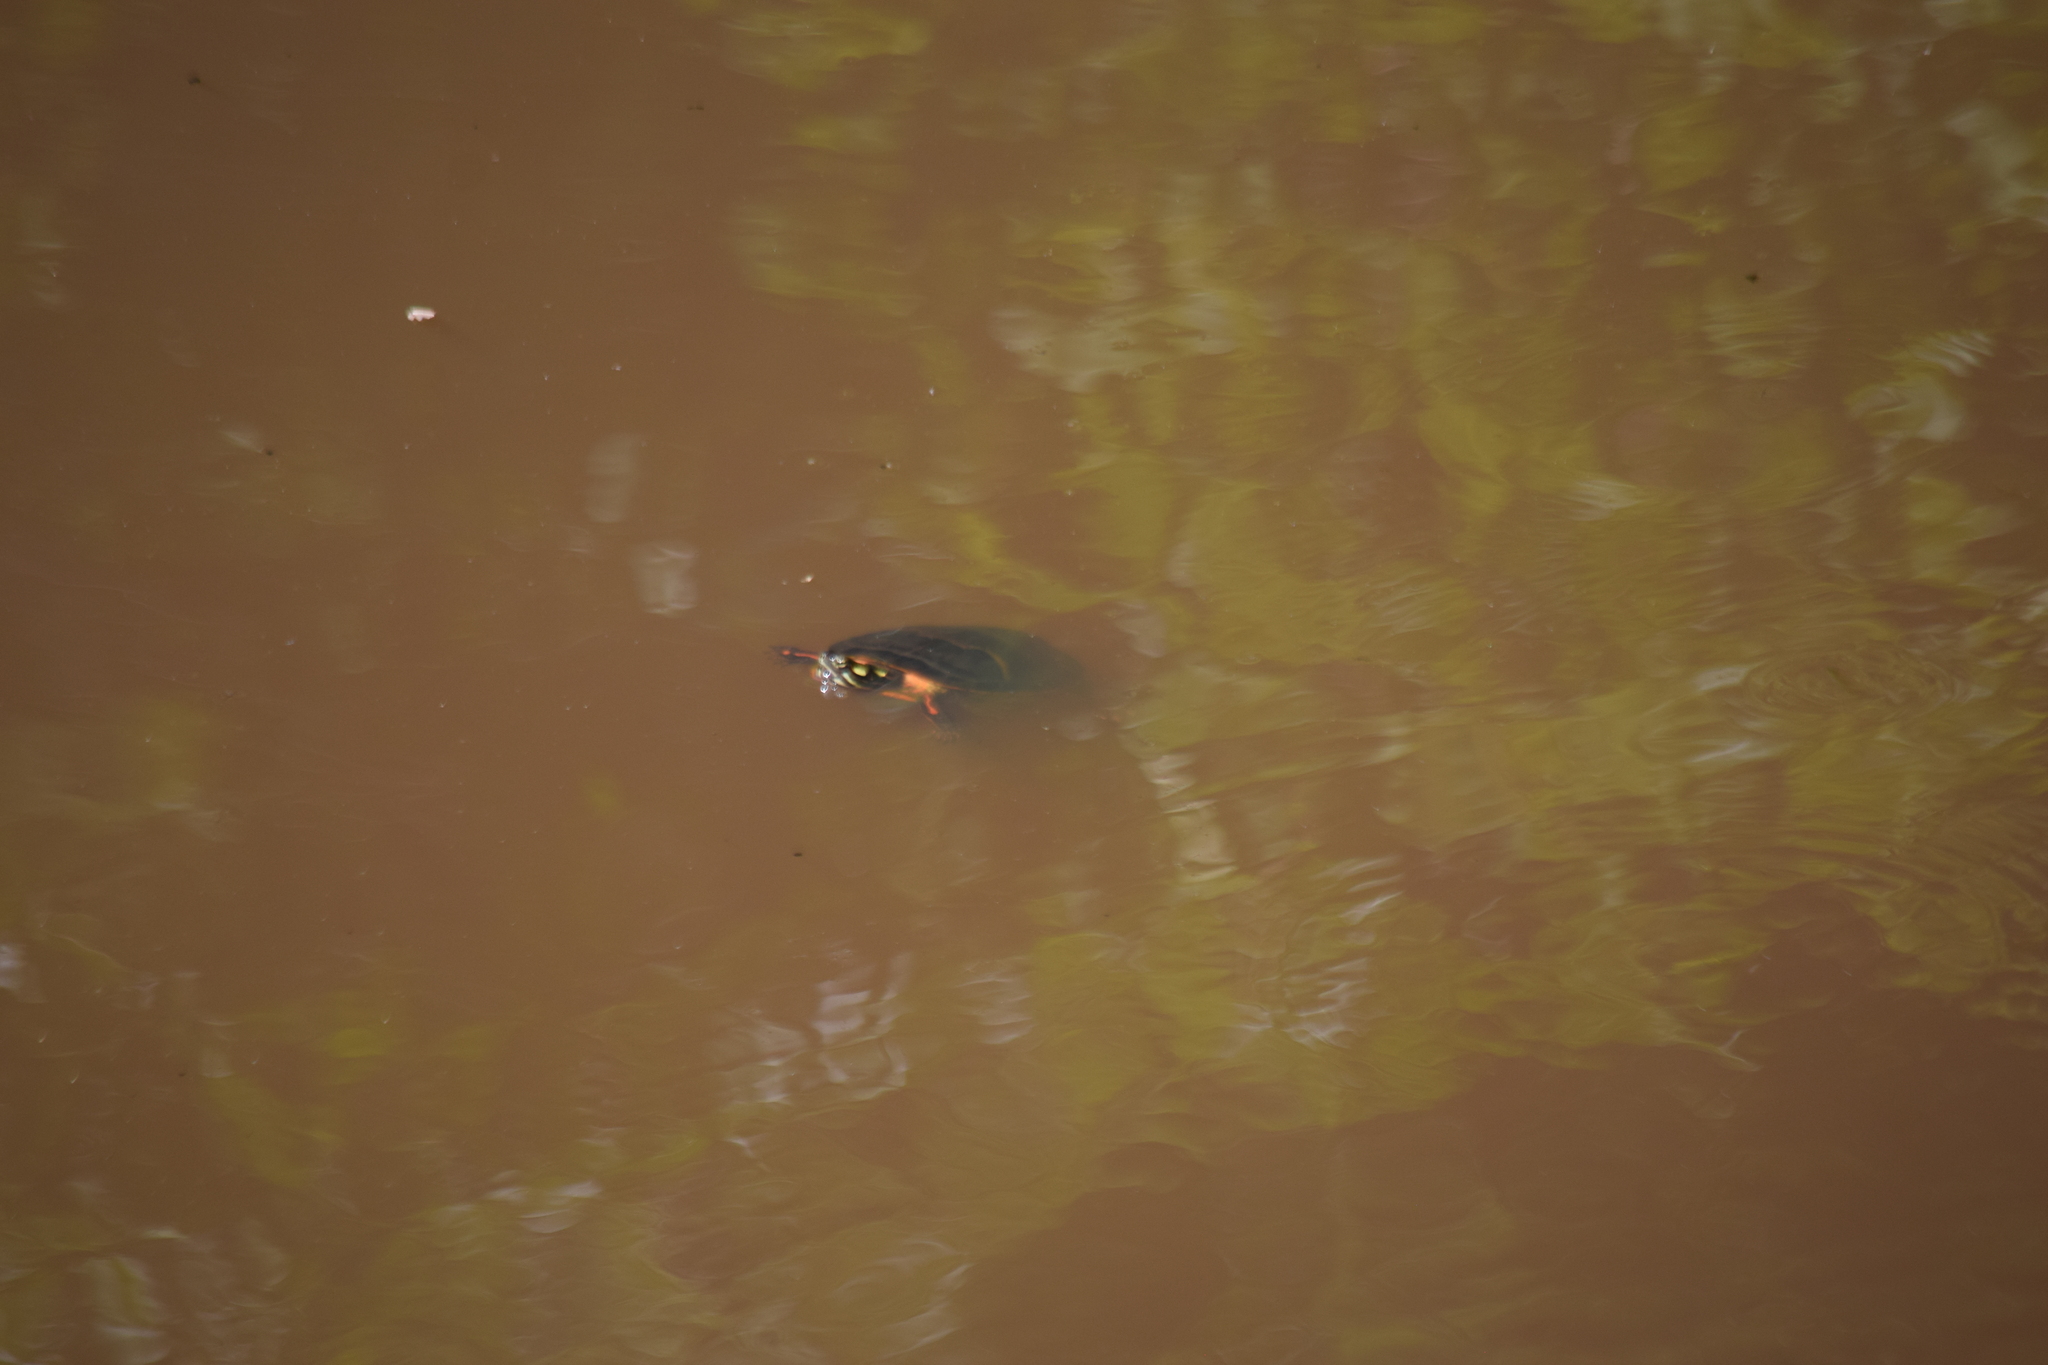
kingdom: Animalia
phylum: Chordata
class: Testudines
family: Emydidae
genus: Chrysemys
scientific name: Chrysemys picta
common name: Painted turtle
